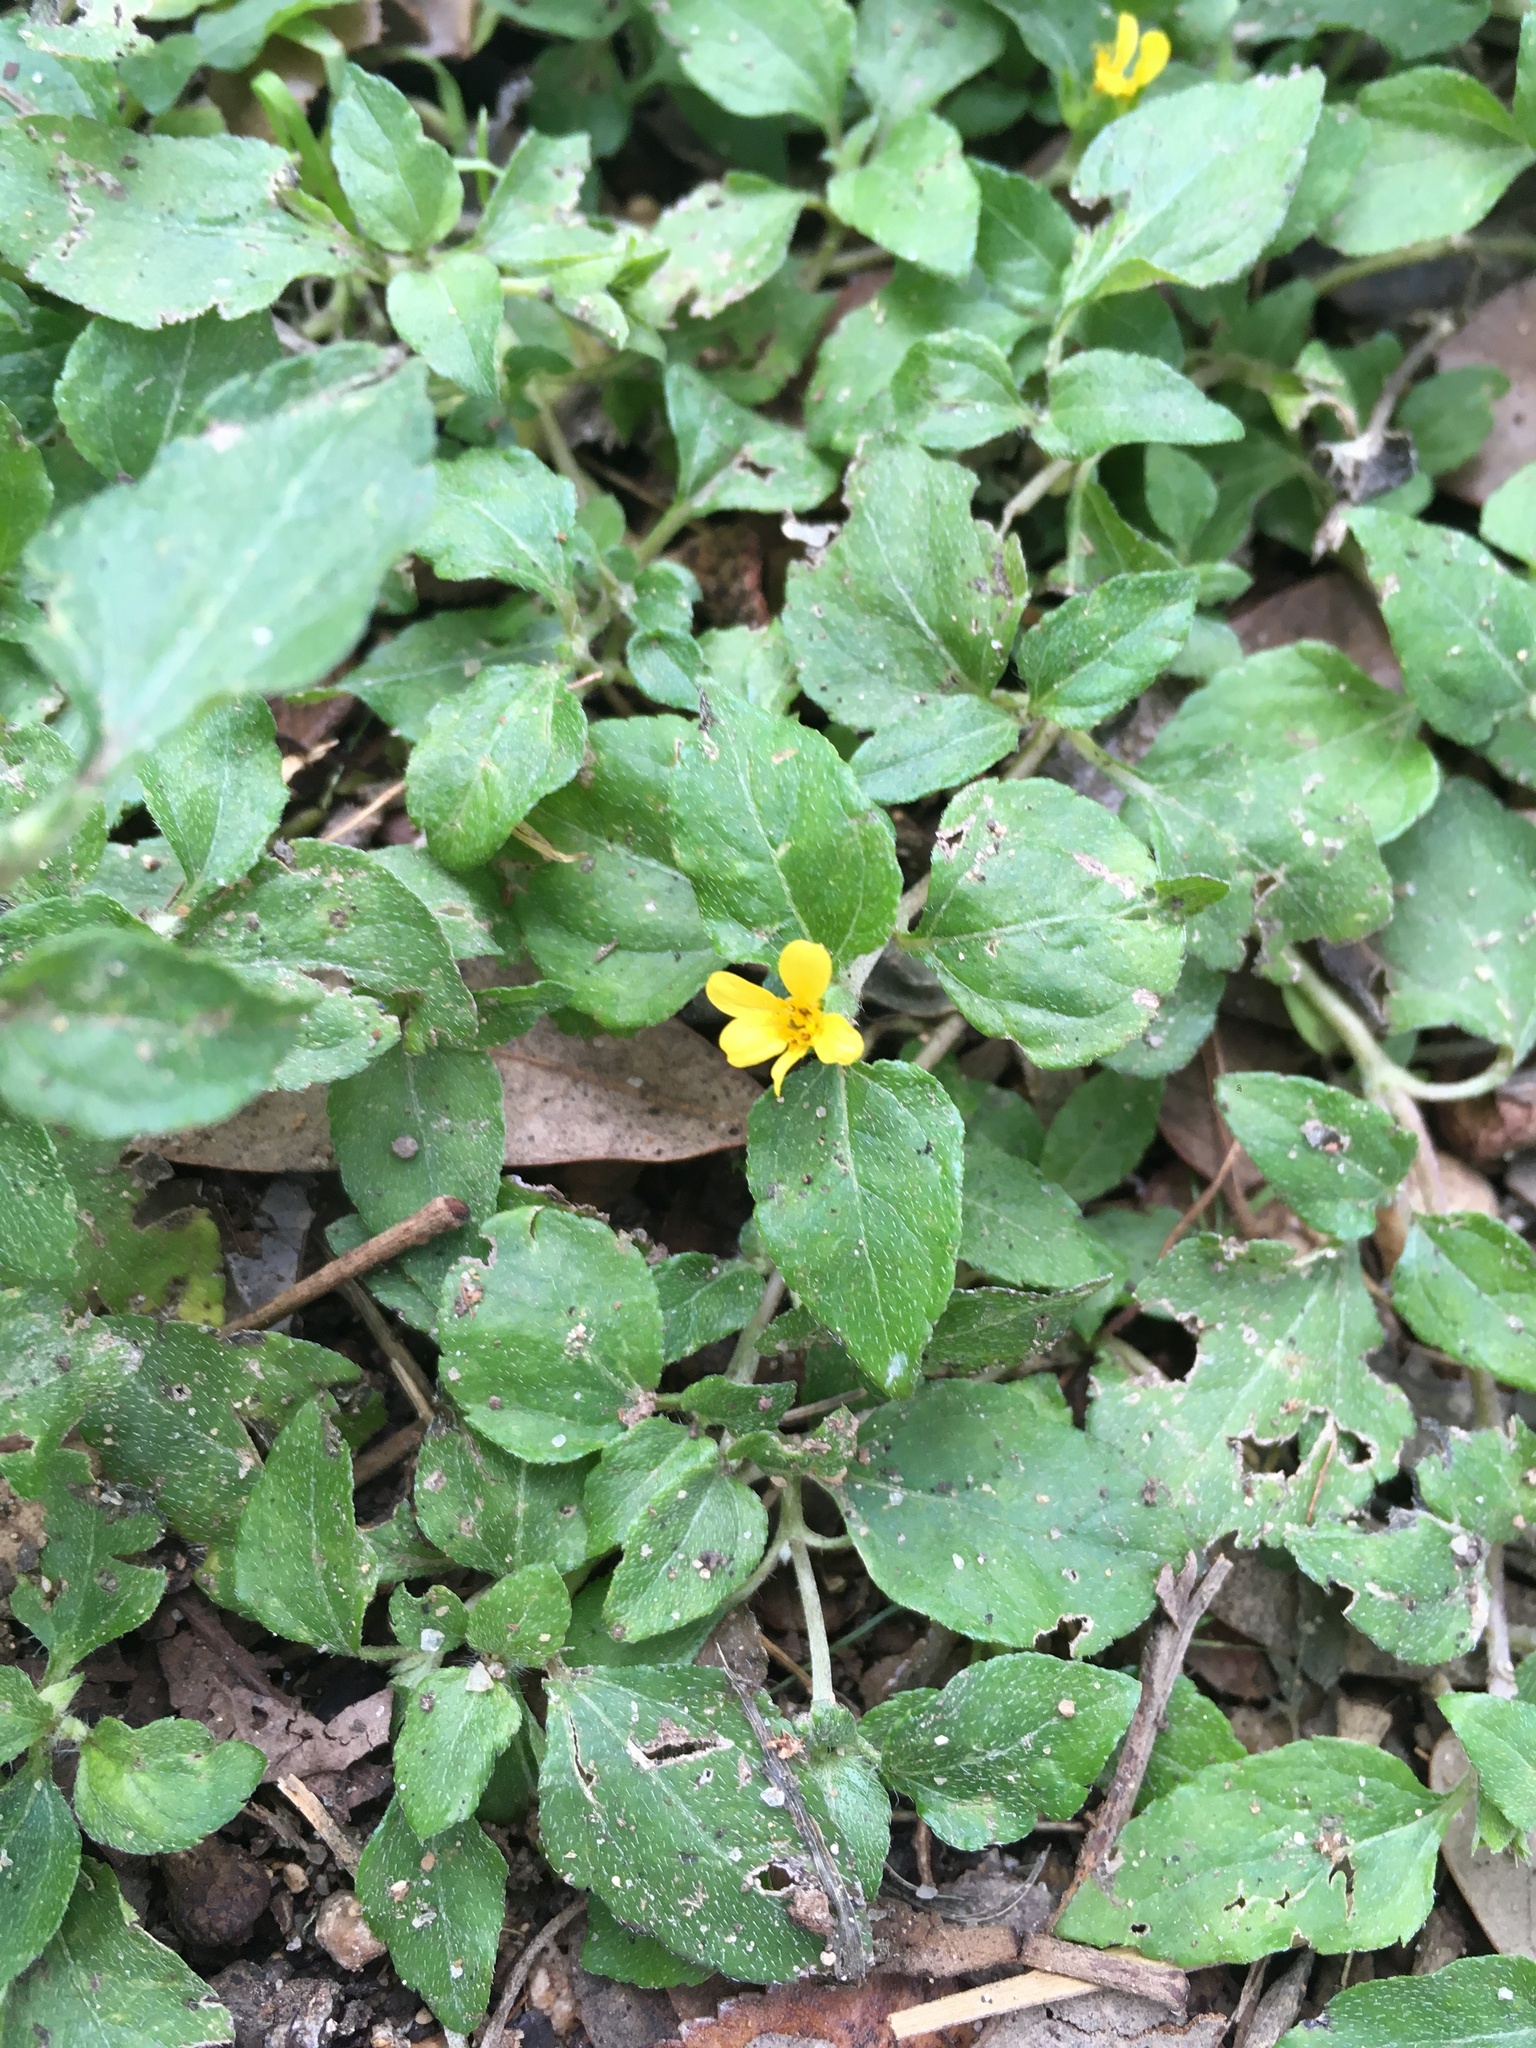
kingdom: Plantae
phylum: Tracheophyta
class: Magnoliopsida
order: Asterales
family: Asteraceae
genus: Calyptocarpus
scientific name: Calyptocarpus vialis
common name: Straggler daisy
